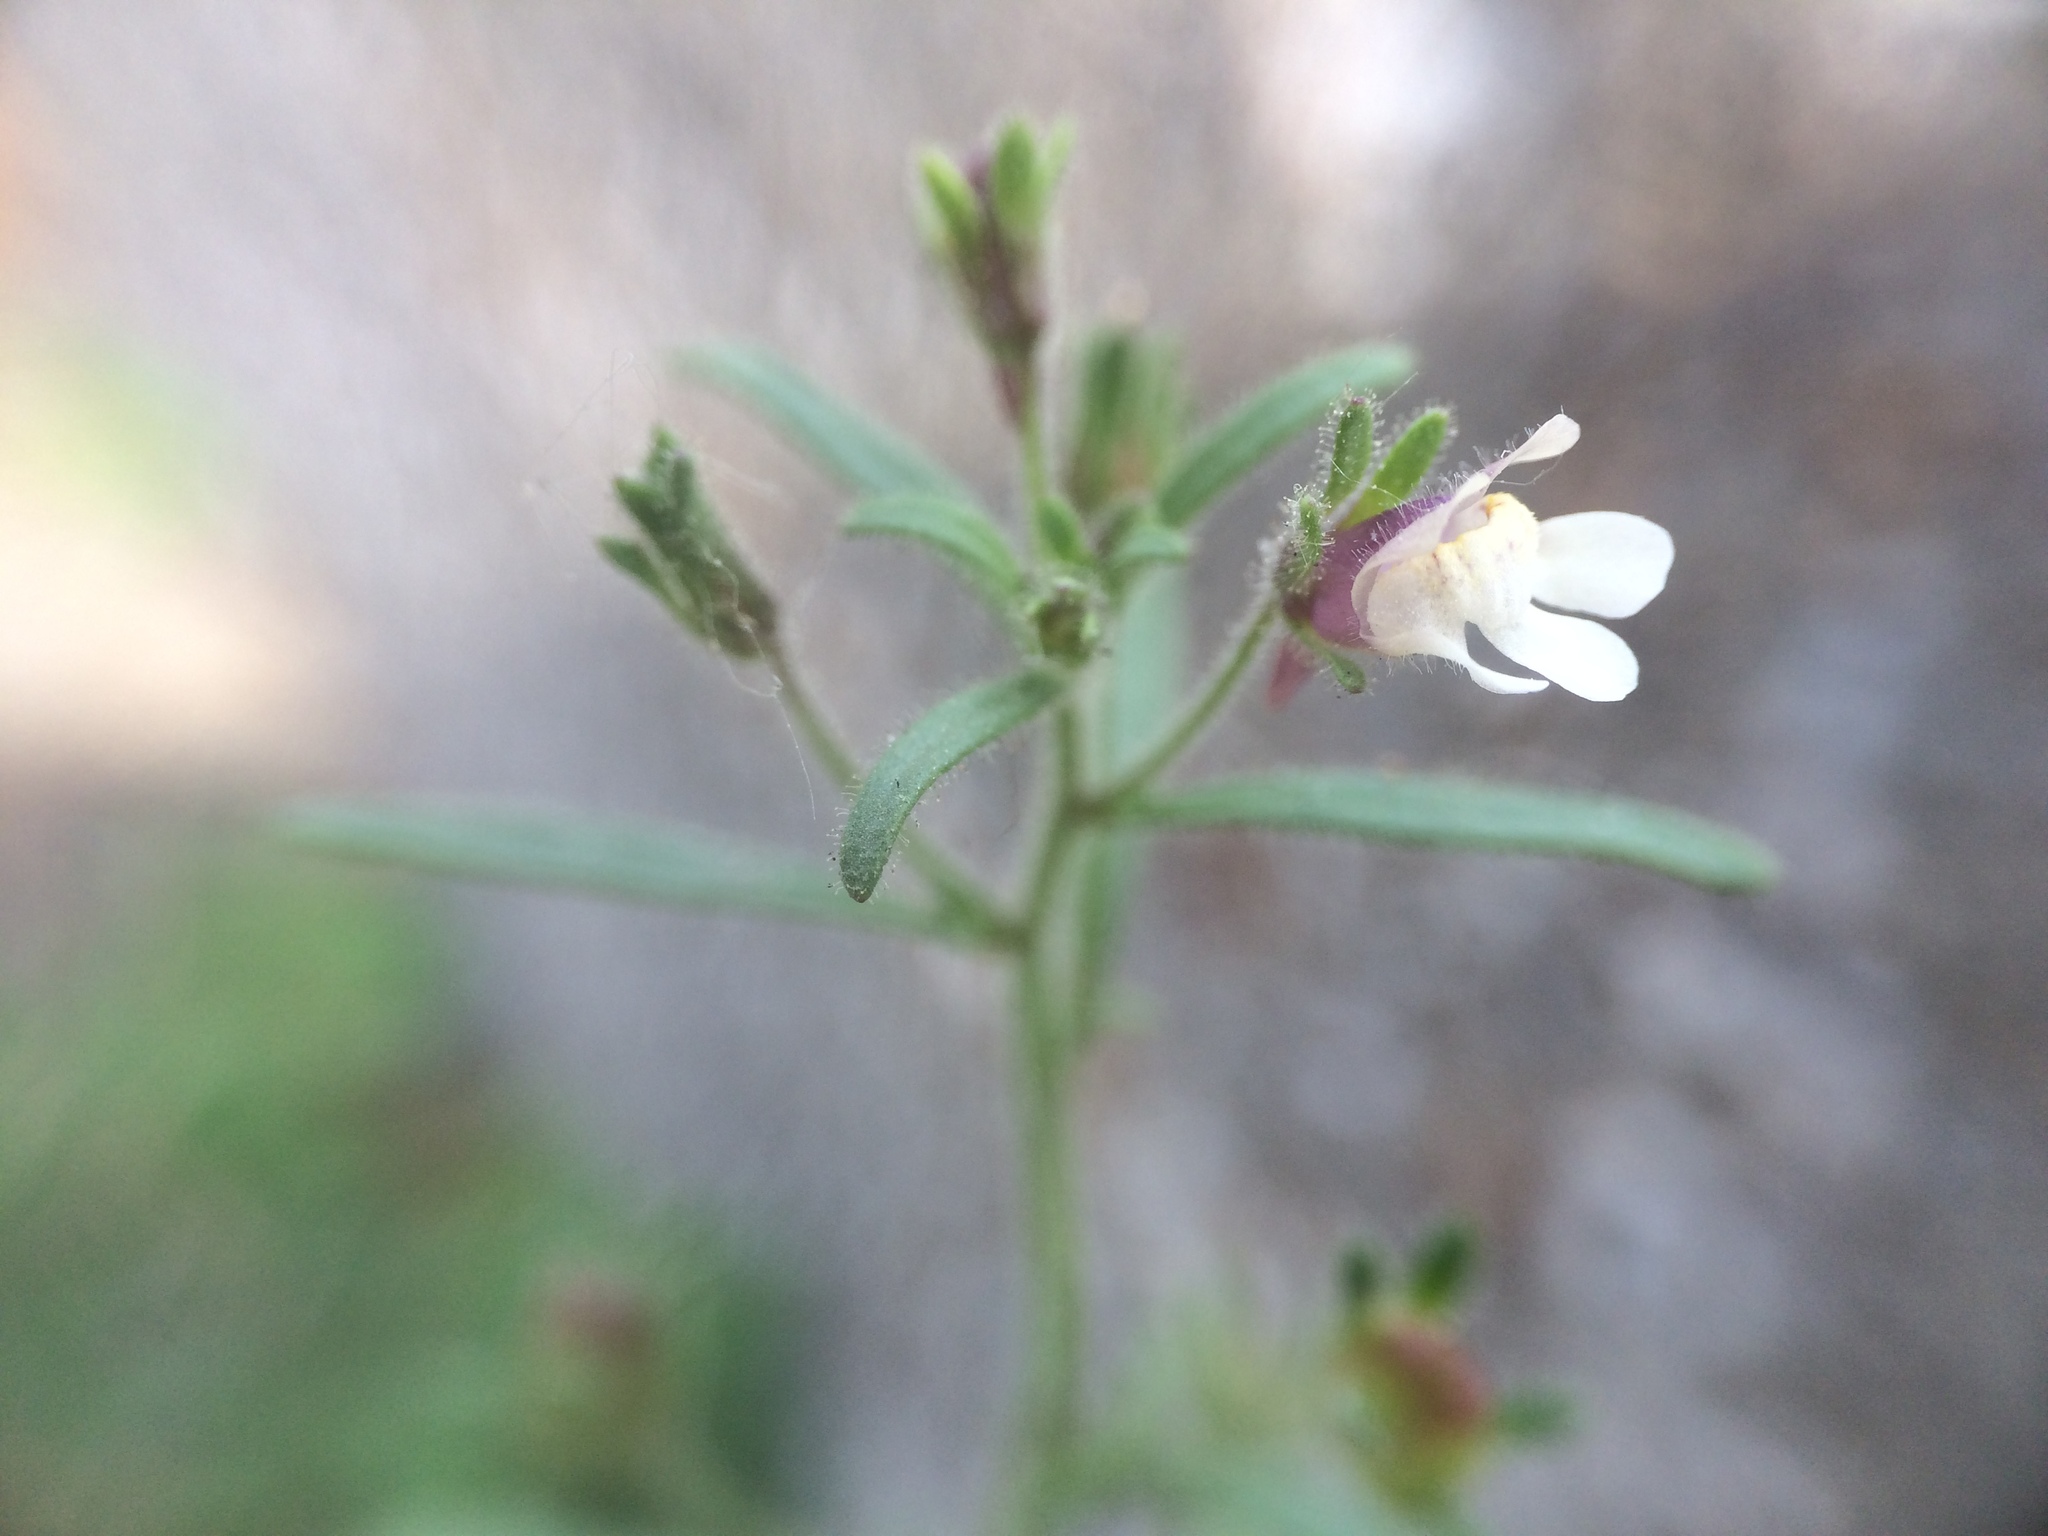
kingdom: Plantae
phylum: Tracheophyta
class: Magnoliopsida
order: Lamiales
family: Plantaginaceae
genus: Chaenorhinum
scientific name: Chaenorhinum minus
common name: Dwarf snapdragon
